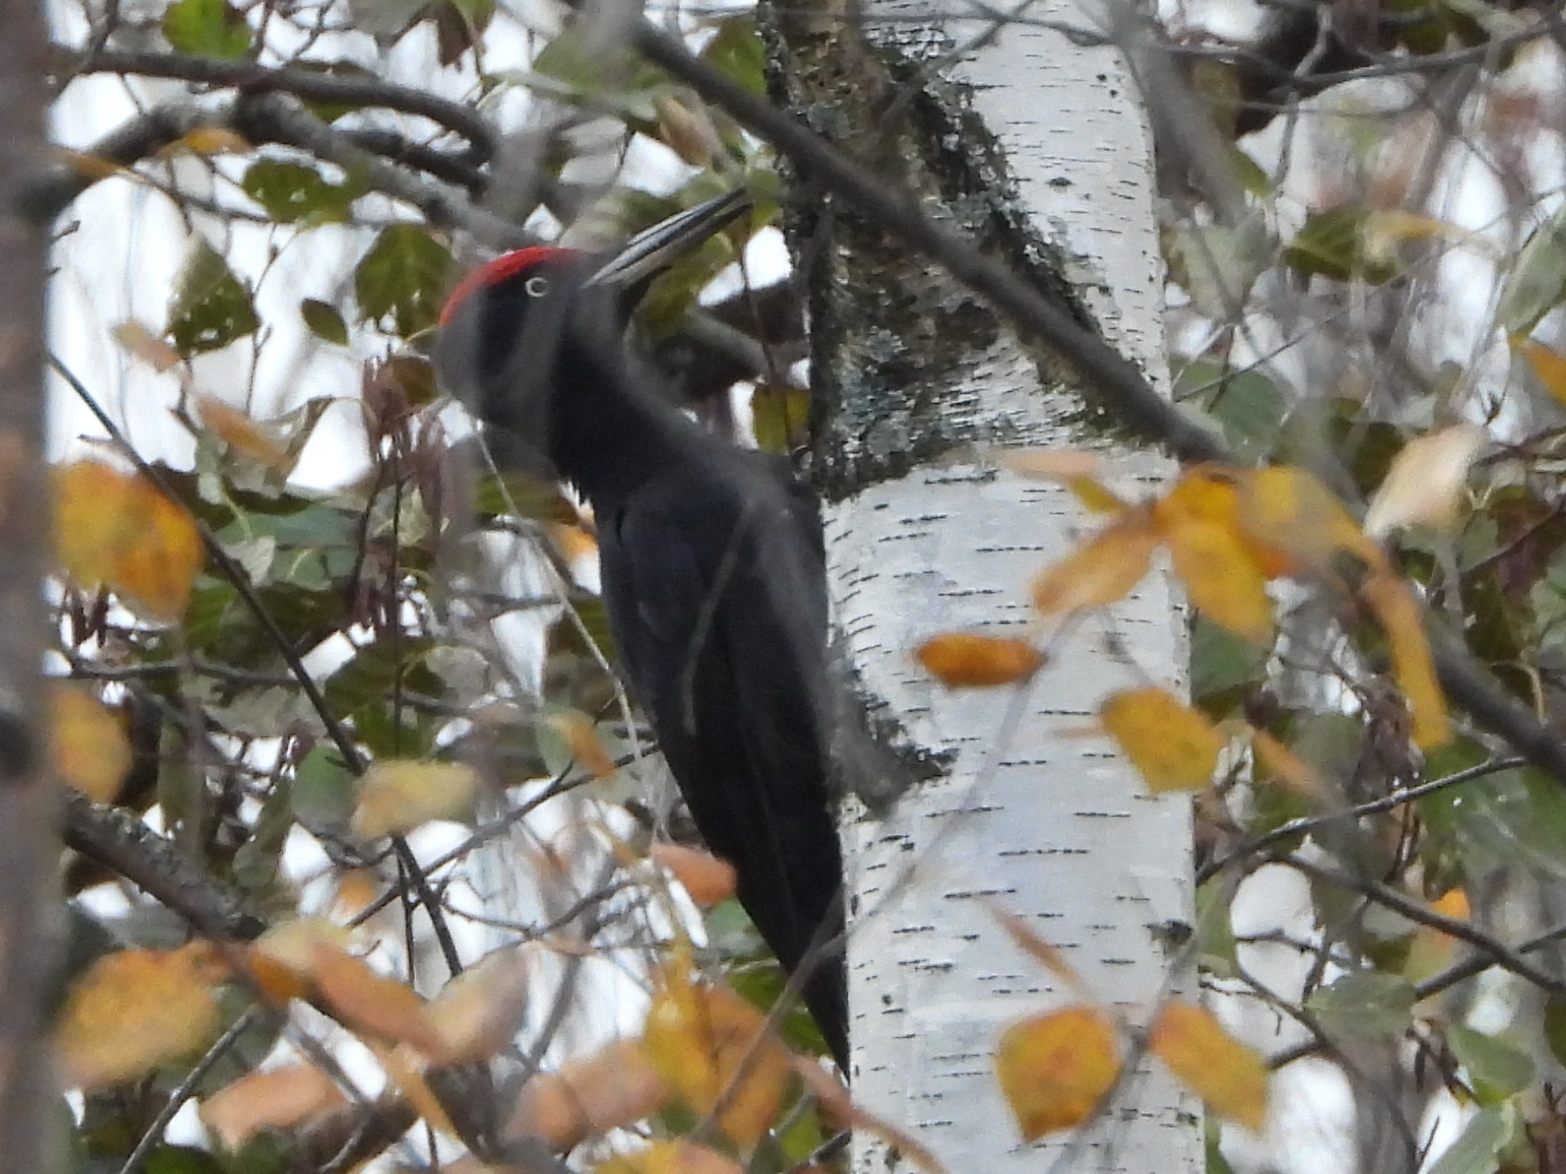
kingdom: Animalia
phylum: Chordata
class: Aves
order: Piciformes
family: Picidae
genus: Dryocopus
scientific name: Dryocopus martius
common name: Black woodpecker
